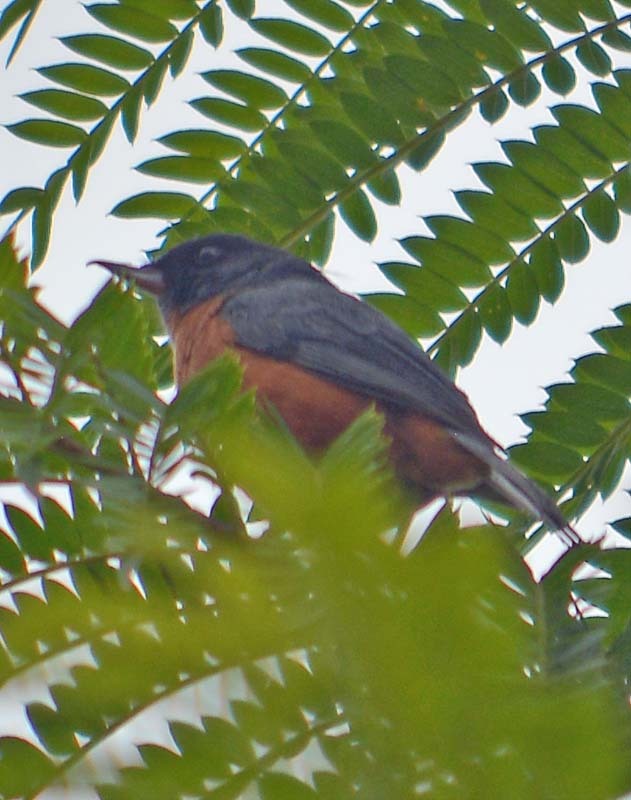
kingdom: Animalia
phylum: Chordata
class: Aves
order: Passeriformes
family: Thraupidae
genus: Diglossa
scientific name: Diglossa baritula
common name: Cinnamon-bellied flowerpiercer
